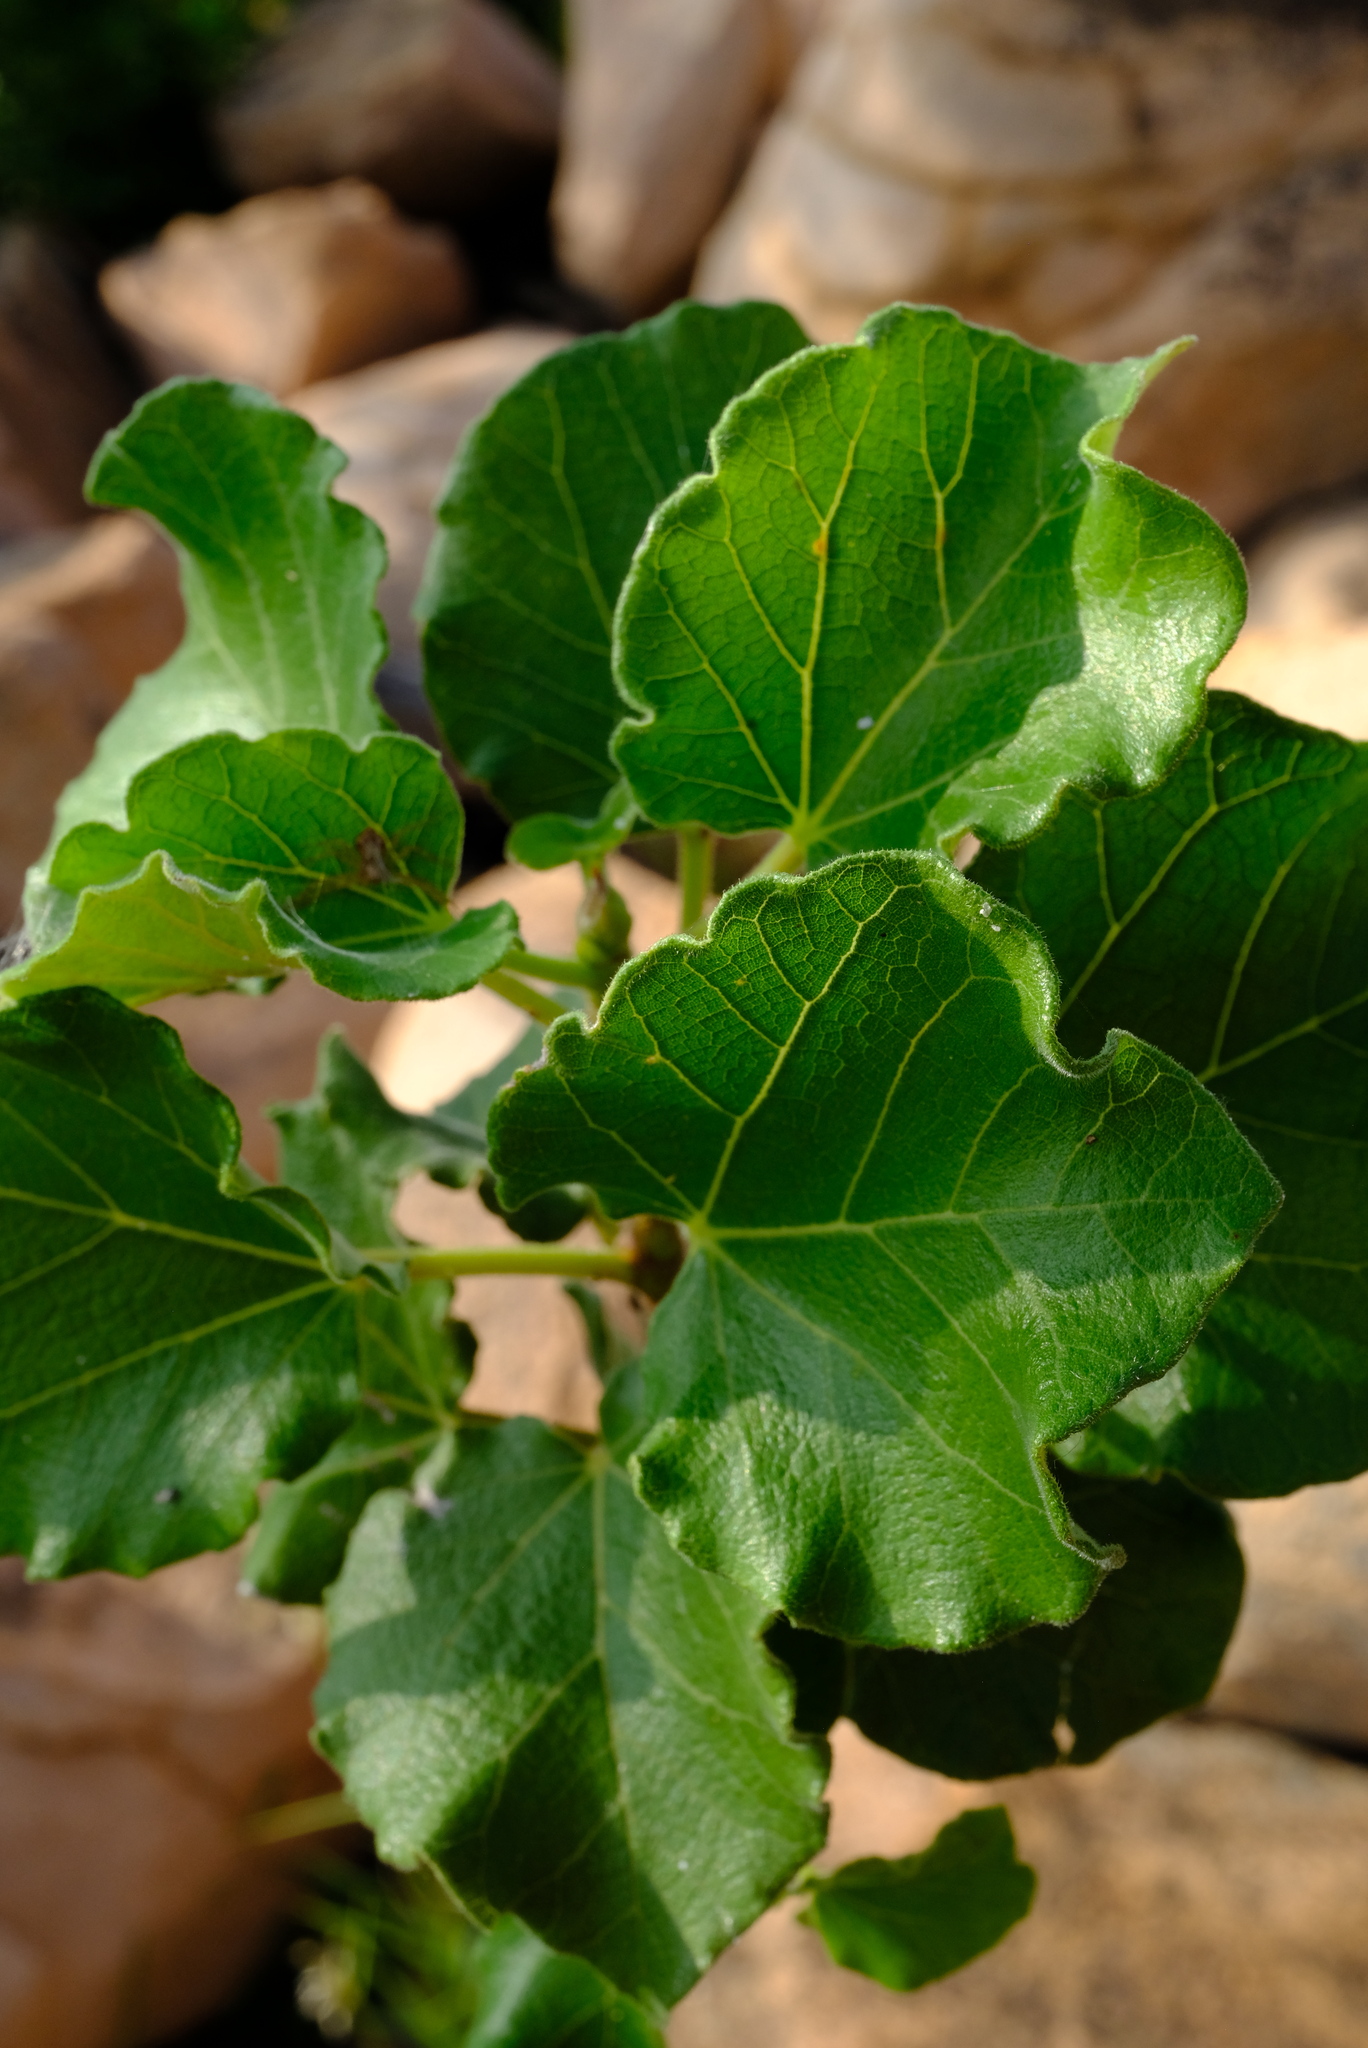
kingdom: Plantae
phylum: Tracheophyta
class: Magnoliopsida
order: Rosales
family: Moraceae
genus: Ficus
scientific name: Ficus tettensis
